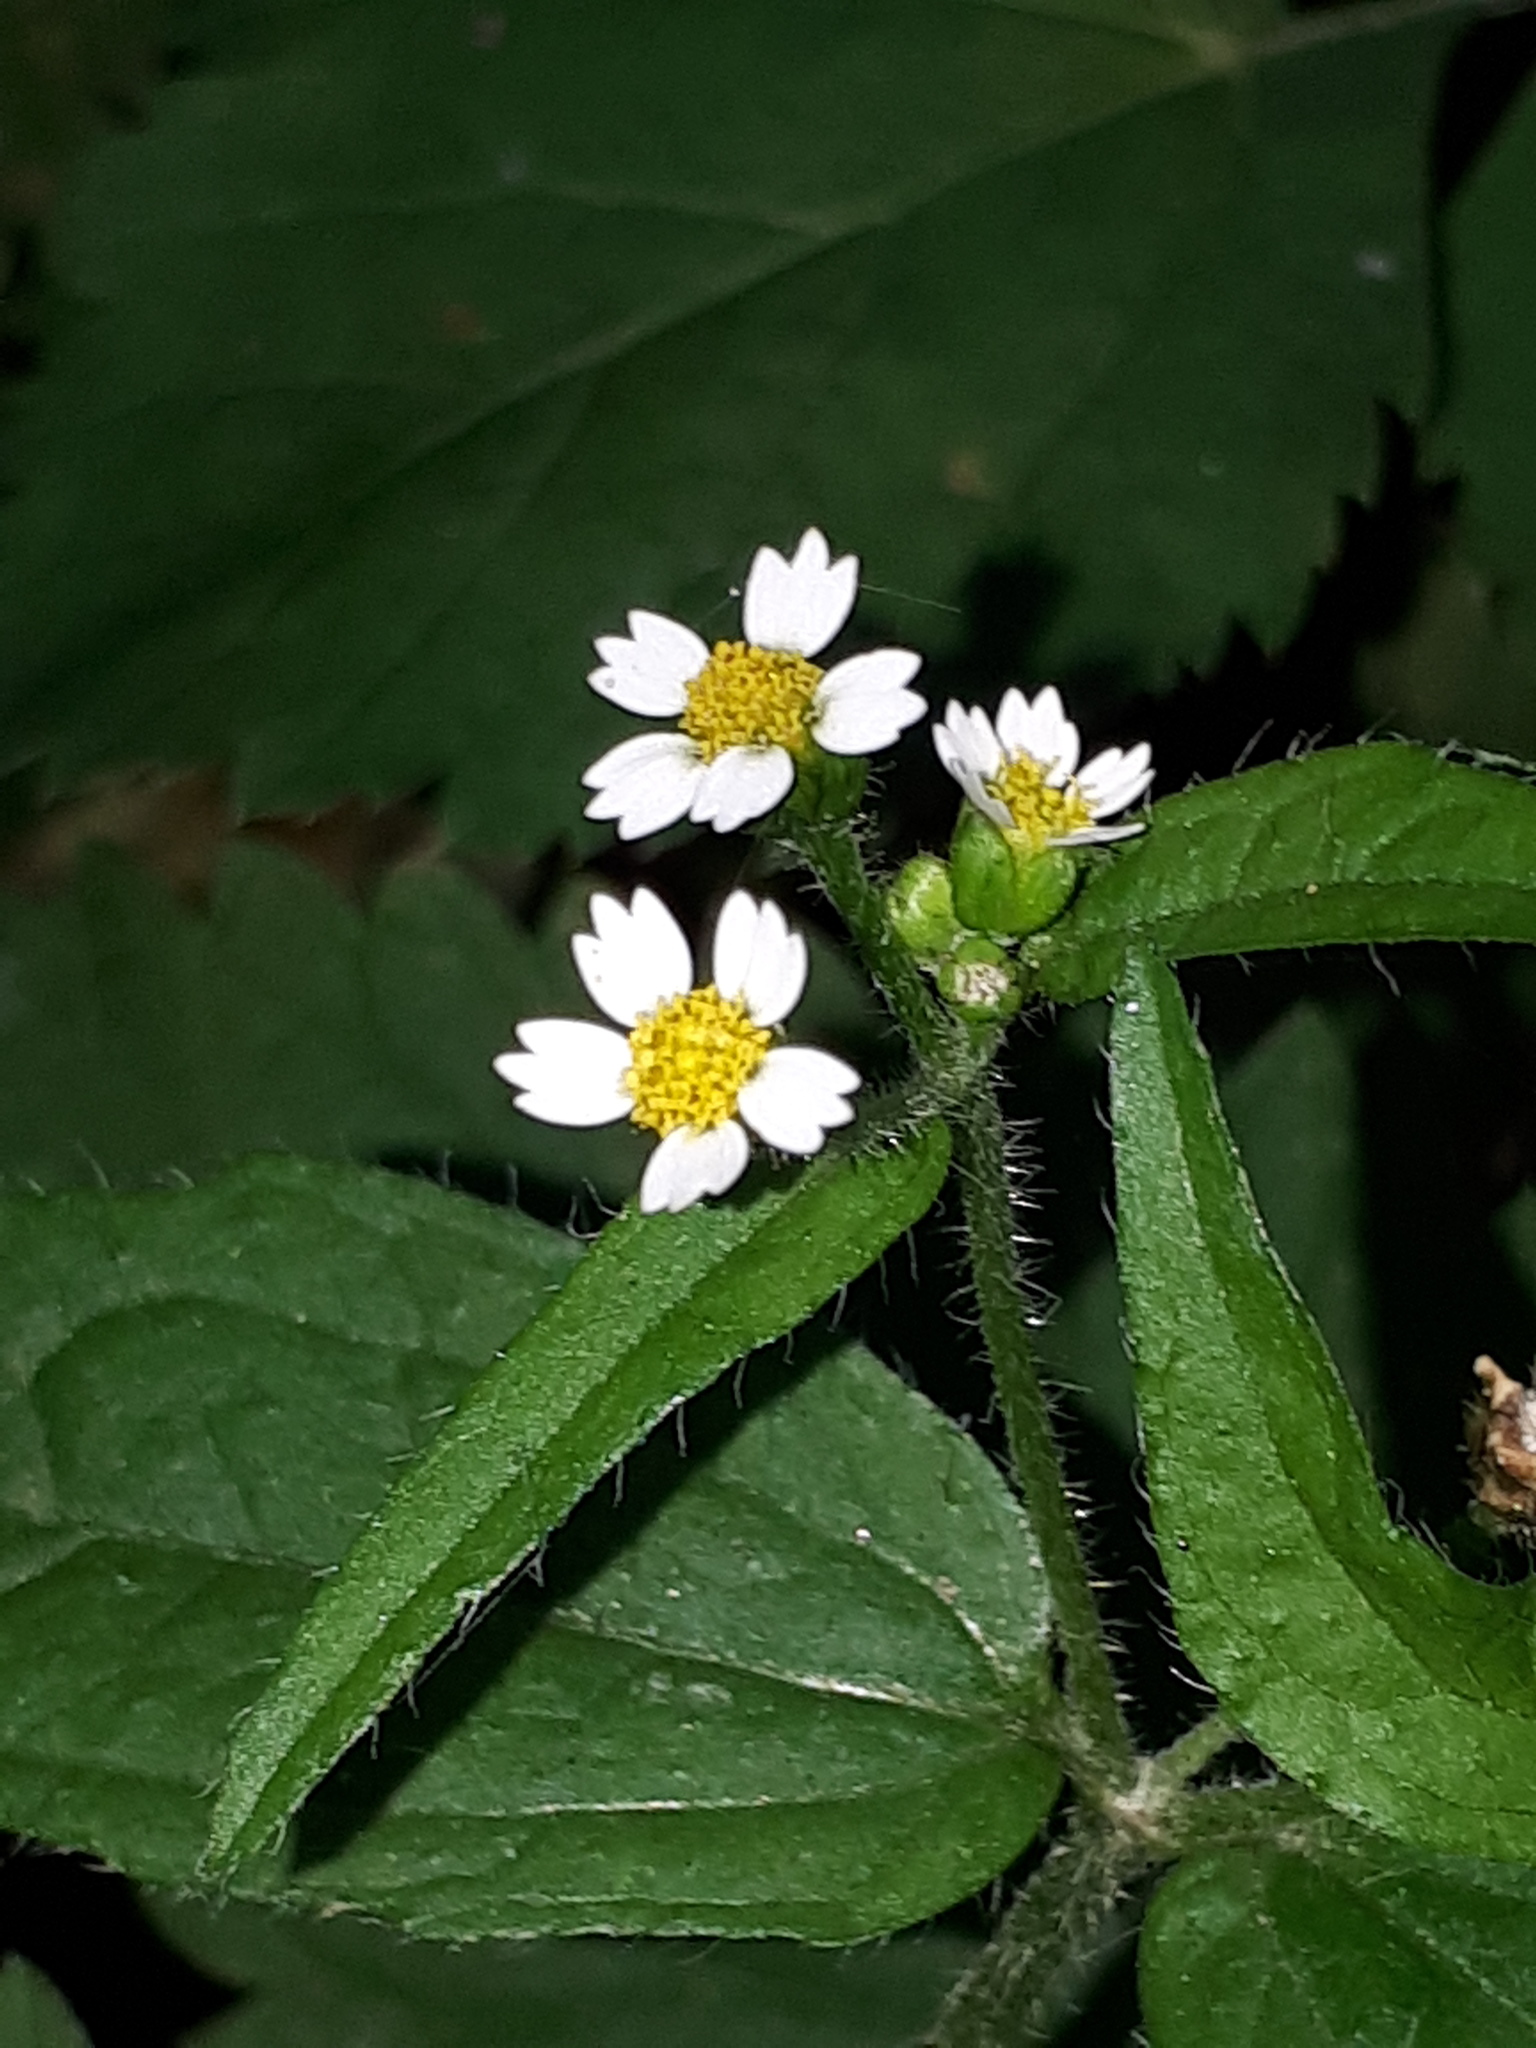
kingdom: Plantae
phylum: Tracheophyta
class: Magnoliopsida
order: Asterales
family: Asteraceae
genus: Galinsoga
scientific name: Galinsoga quadriradiata
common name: Shaggy soldier
